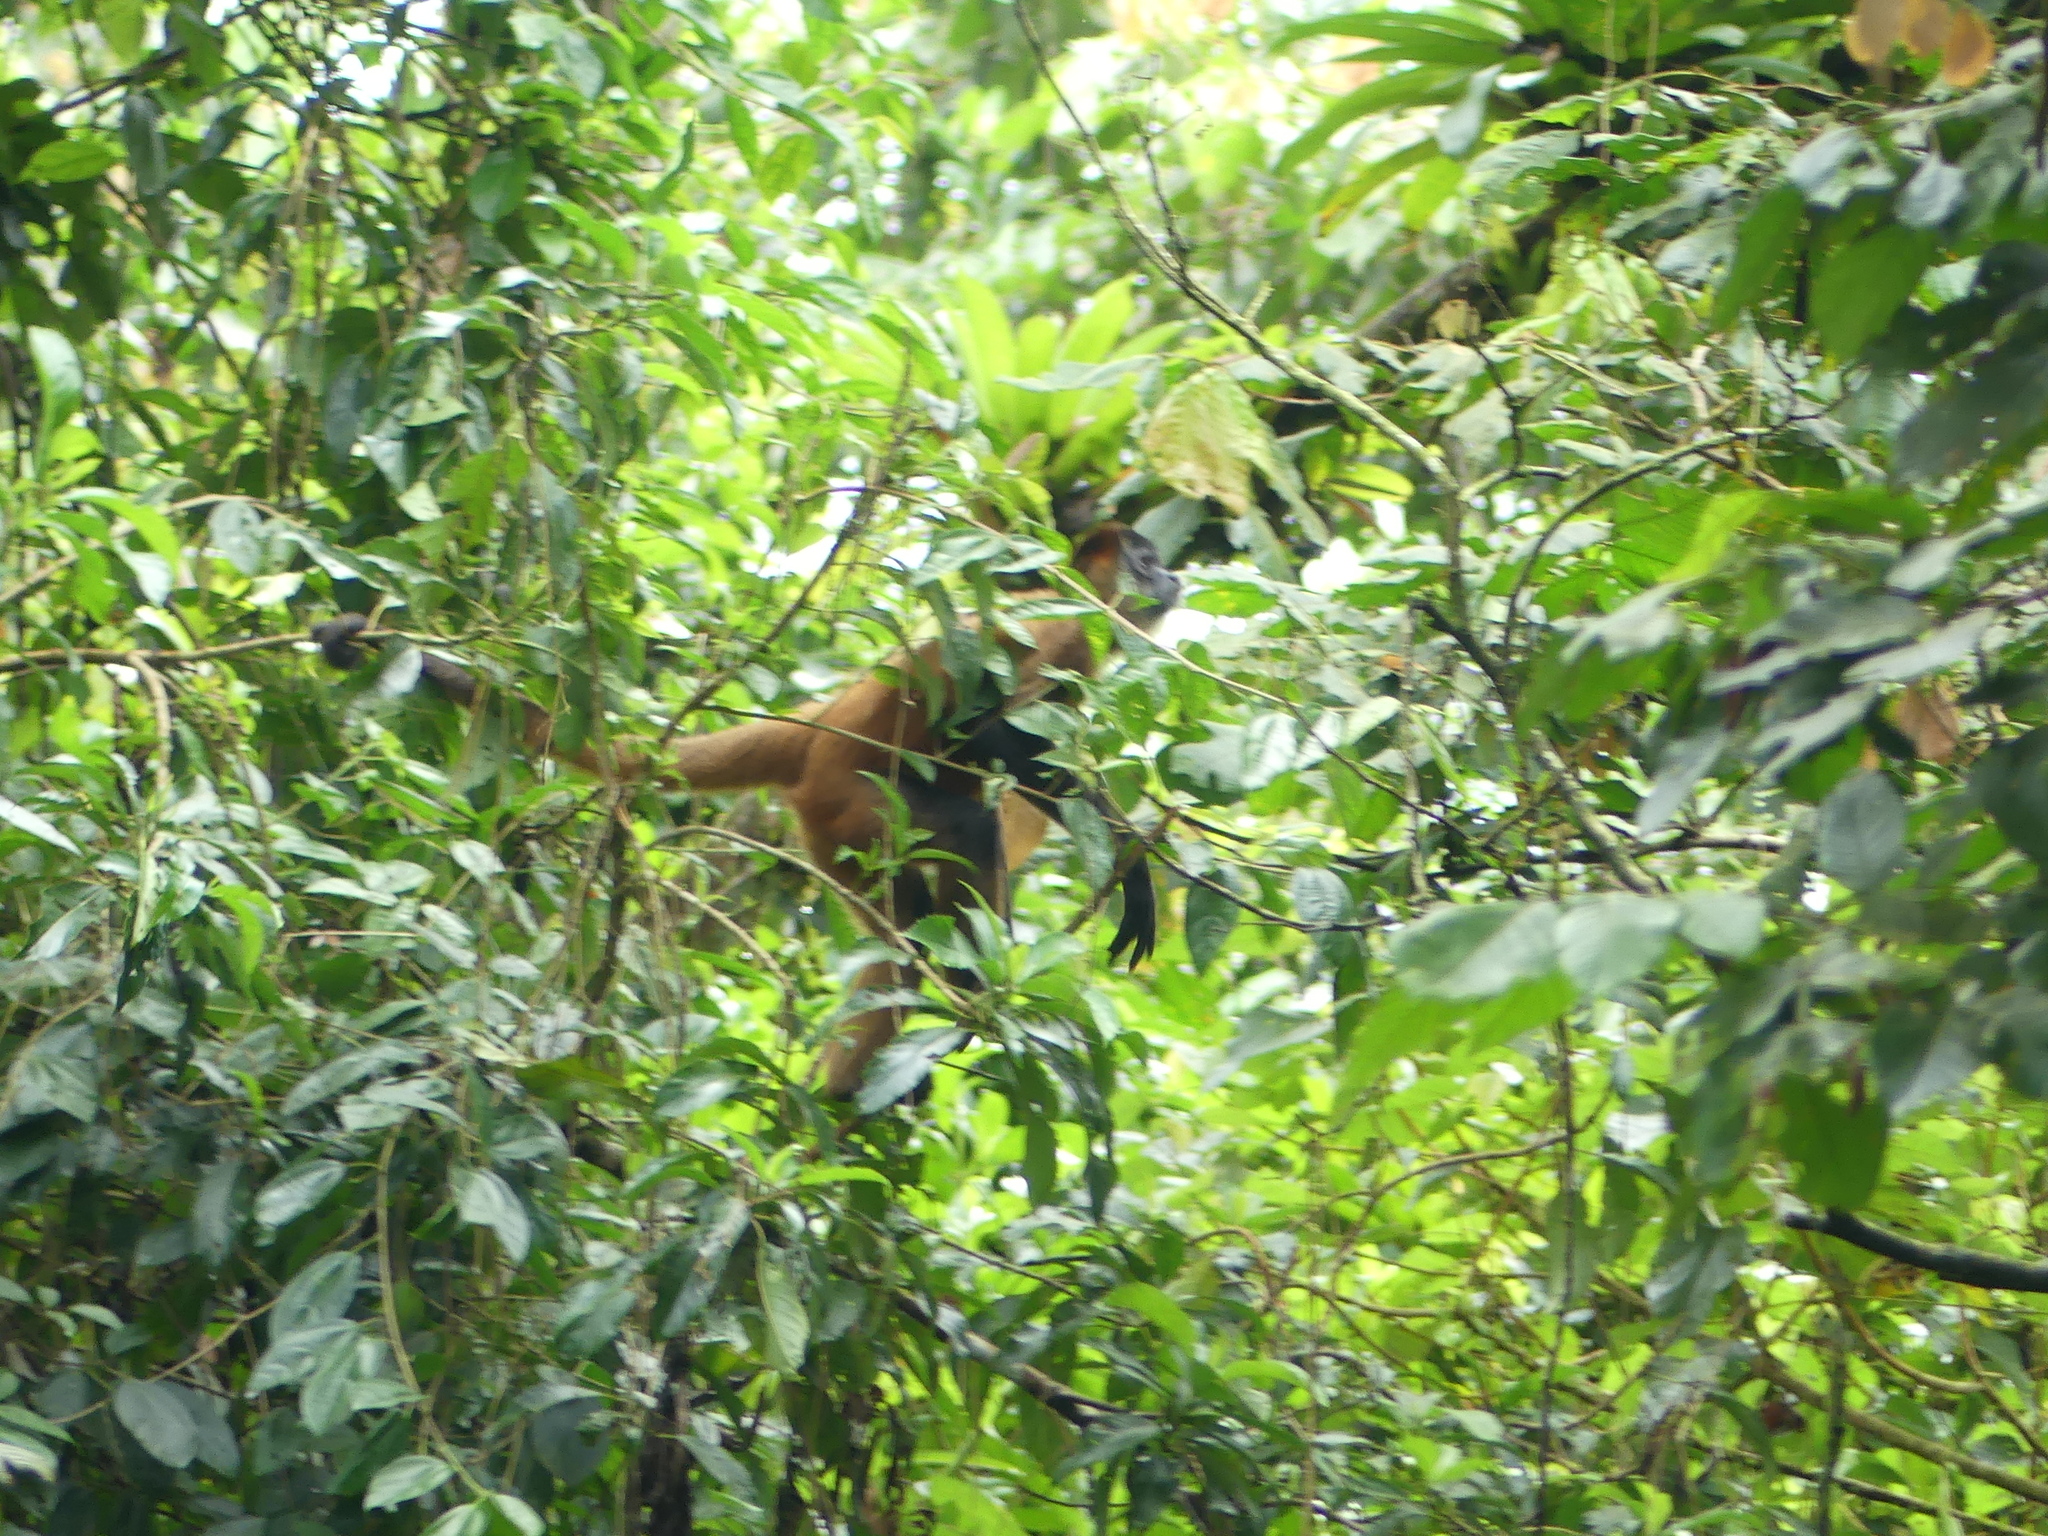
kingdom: Animalia
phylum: Chordata
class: Mammalia
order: Primates
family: Atelidae
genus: Ateles
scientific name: Ateles geoffroyi
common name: Black-handed spider monkey
